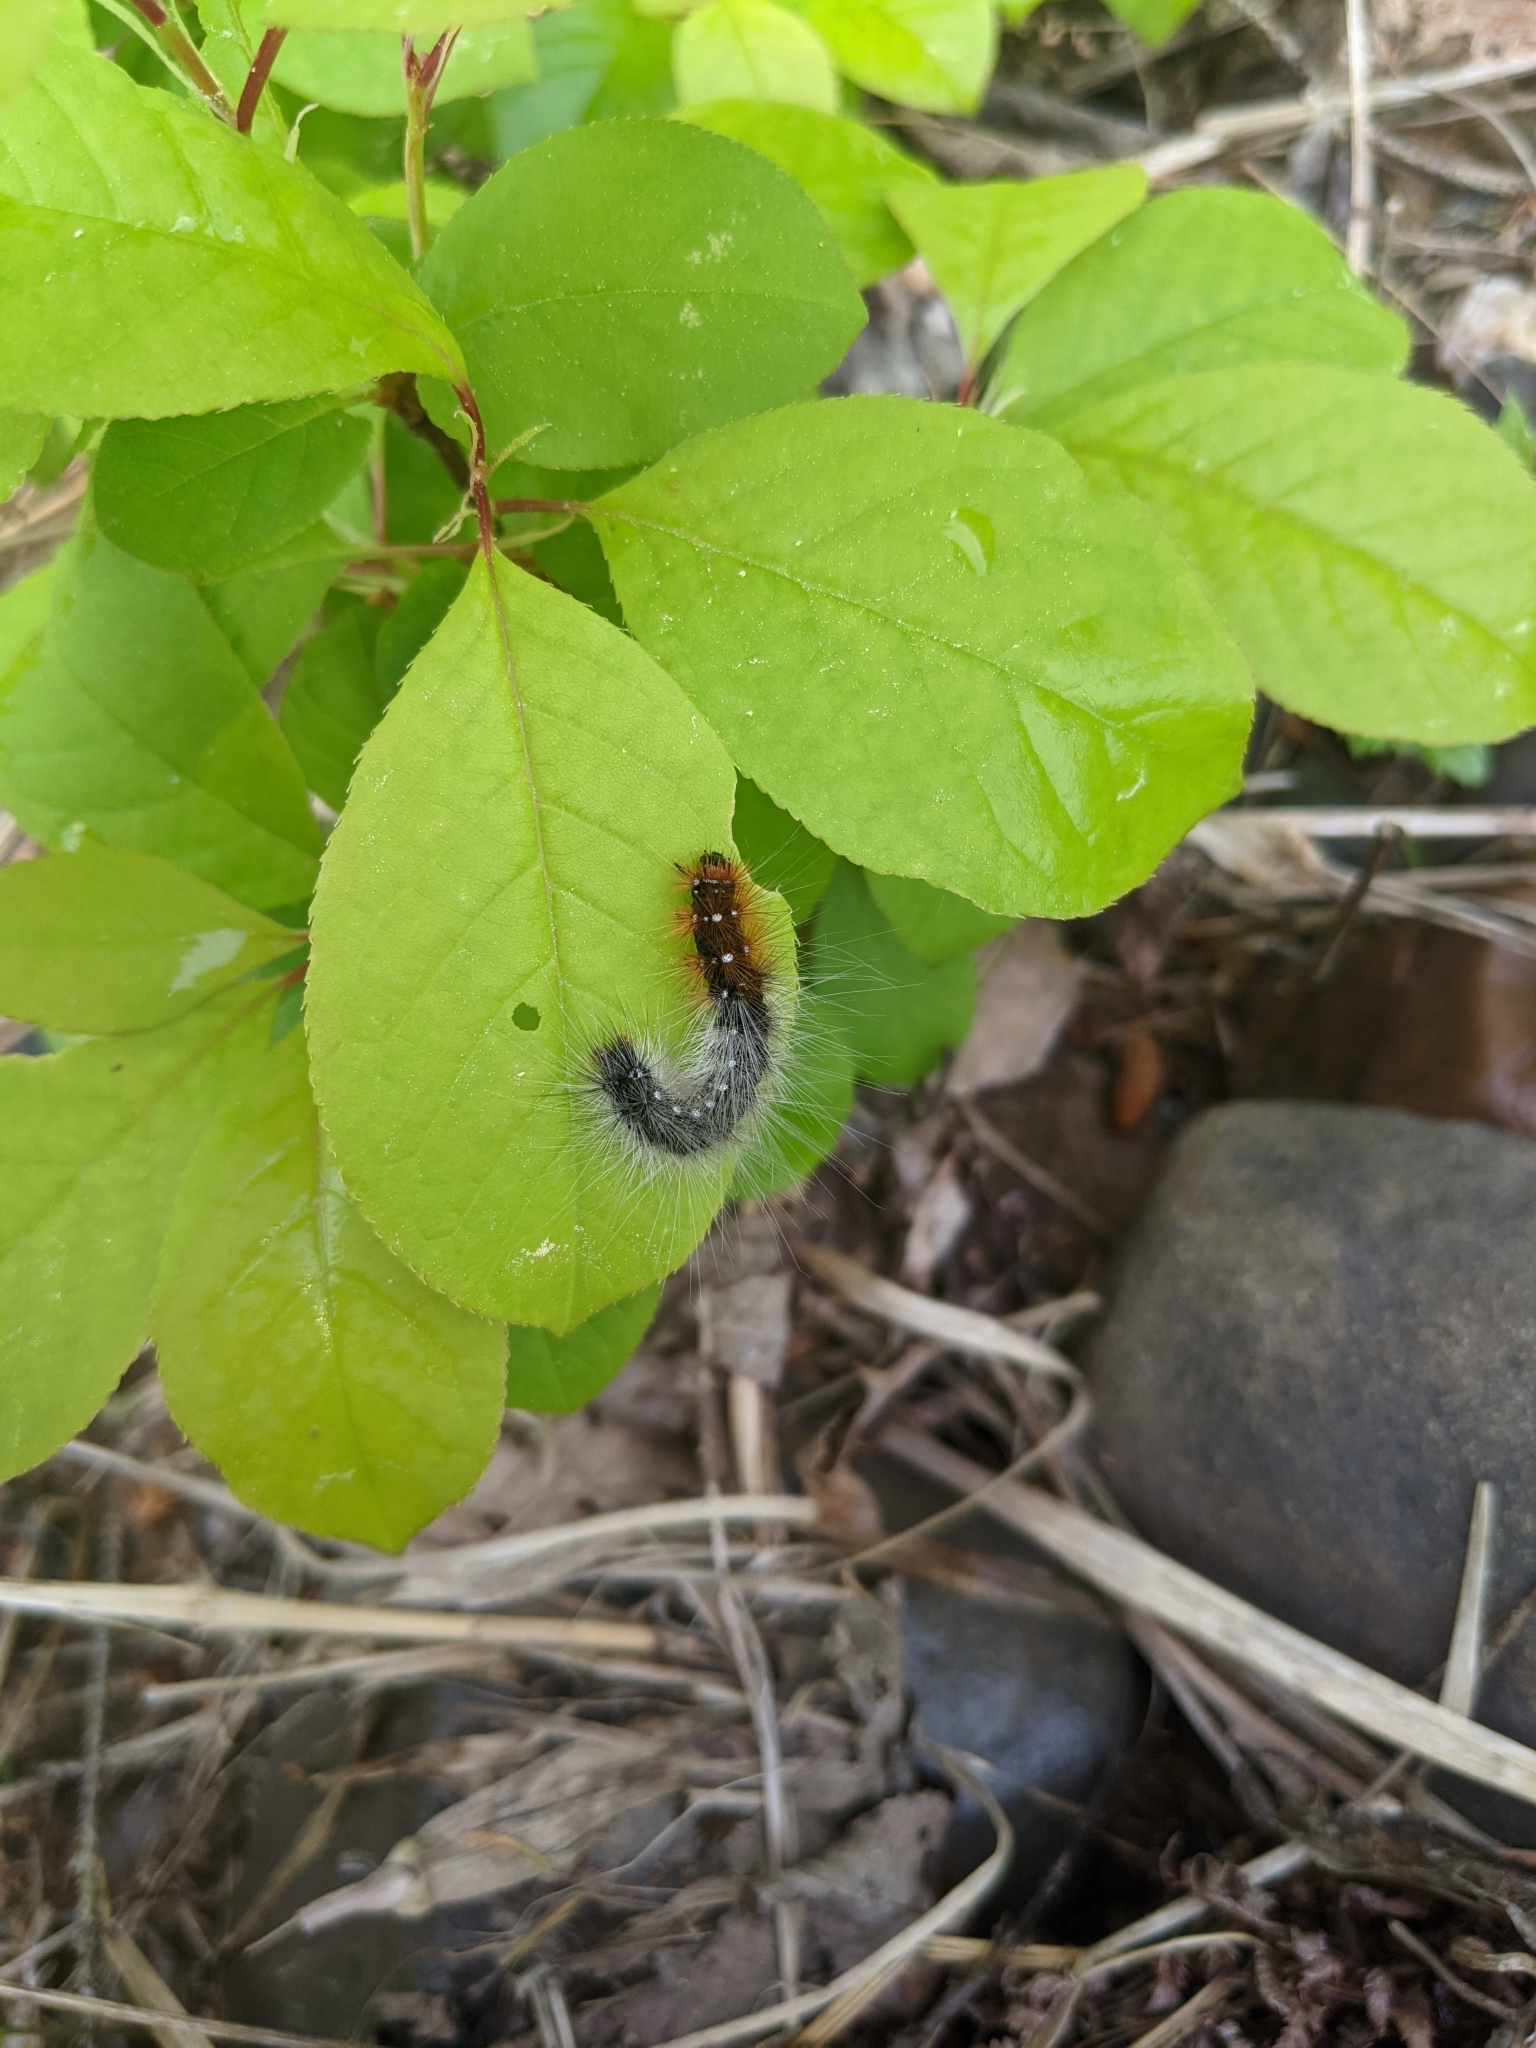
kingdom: Animalia
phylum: Arthropoda
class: Insecta
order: Lepidoptera
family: Erebidae
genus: Arctia
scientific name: Arctia caja
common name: Garden tiger
